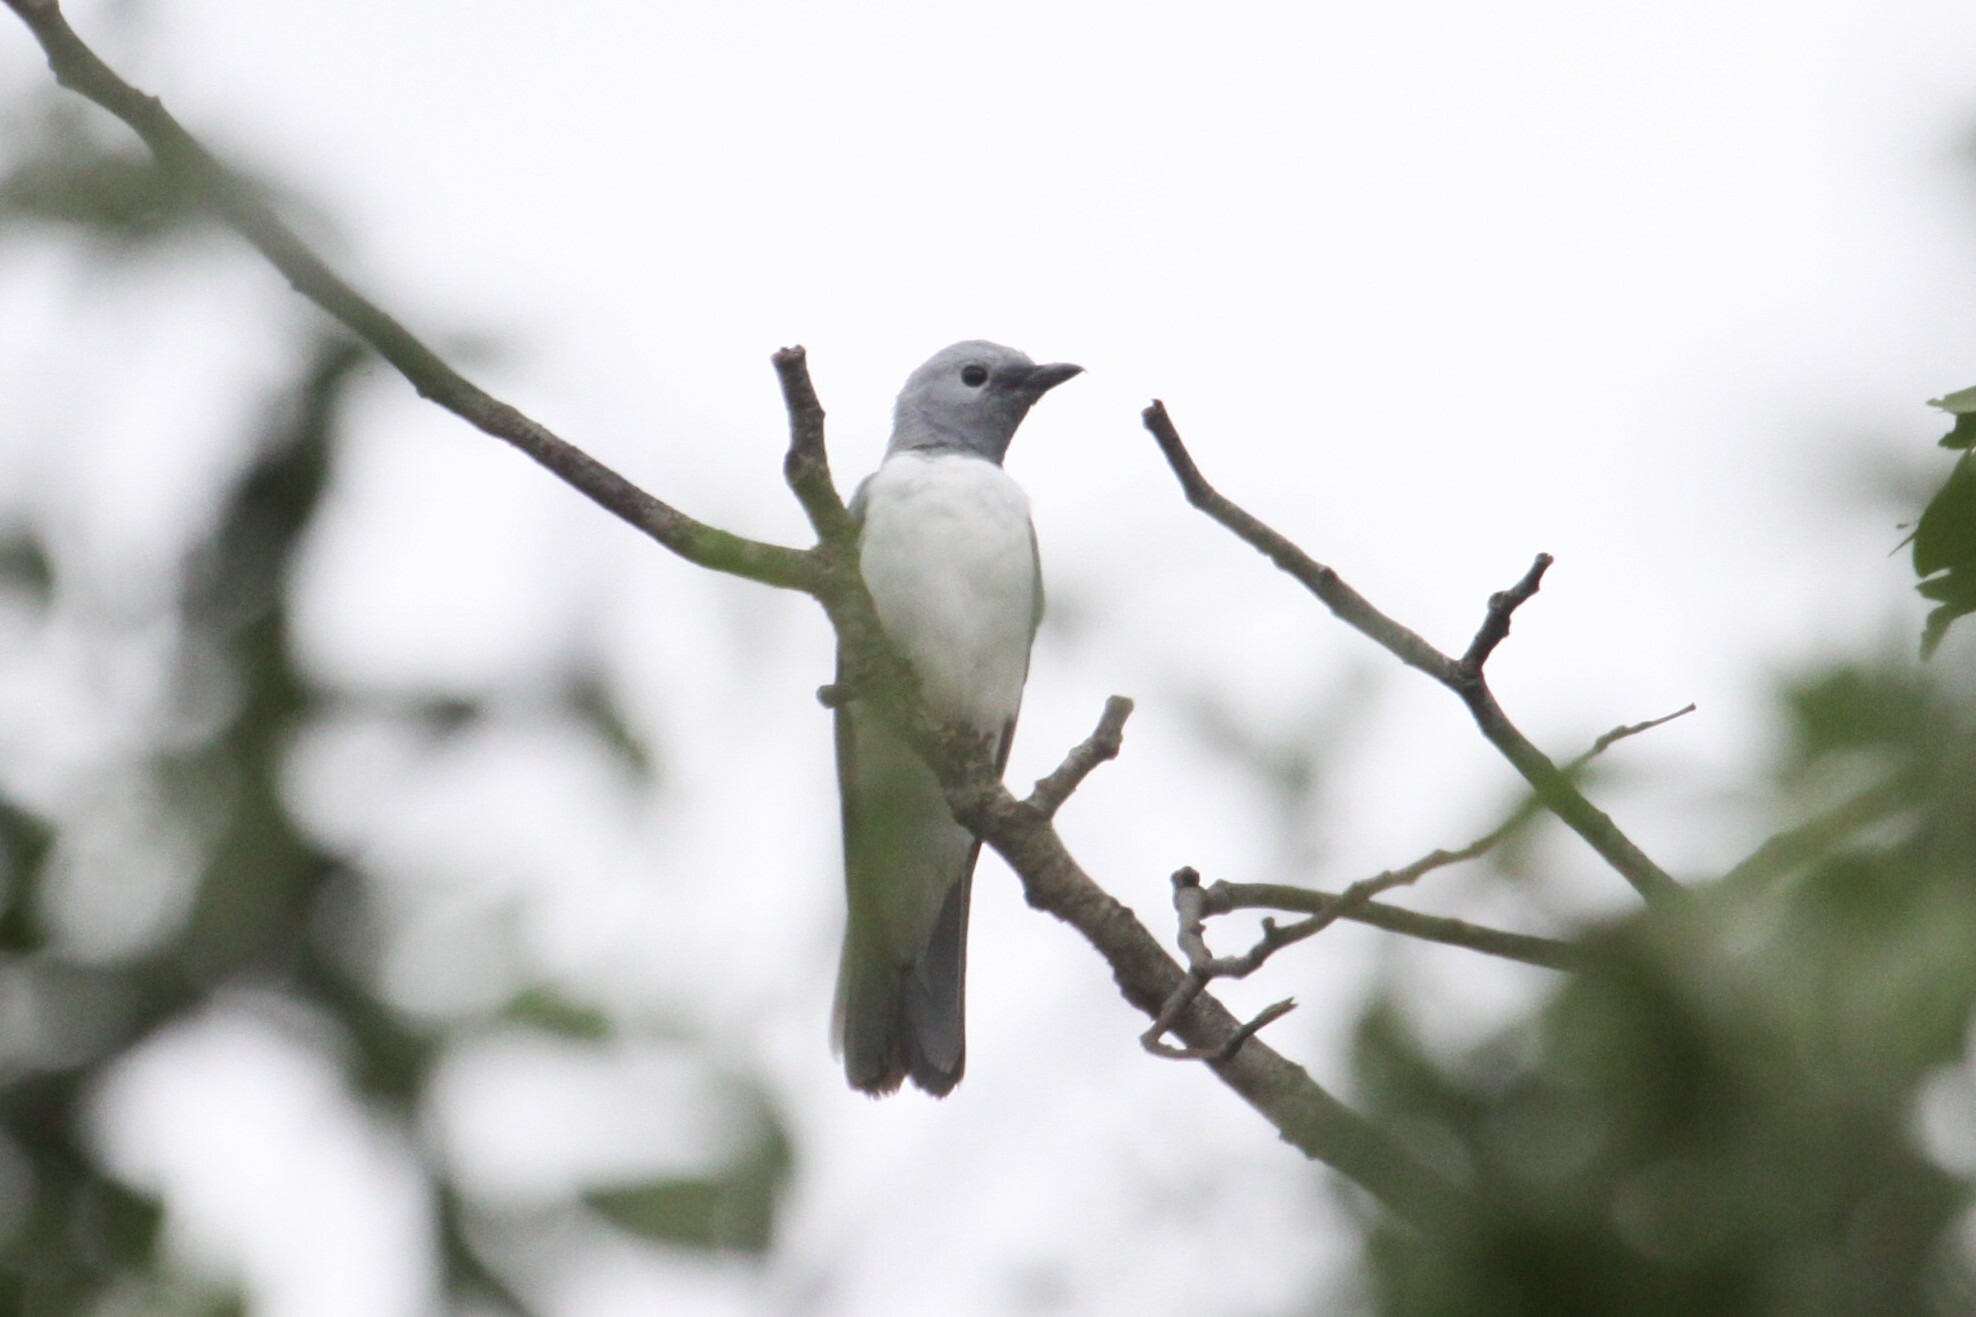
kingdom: Animalia
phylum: Chordata
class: Aves
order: Passeriformes
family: Campephagidae
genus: Coracina
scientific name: Coracina pectoralis
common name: White-breasted cuckooshrike
